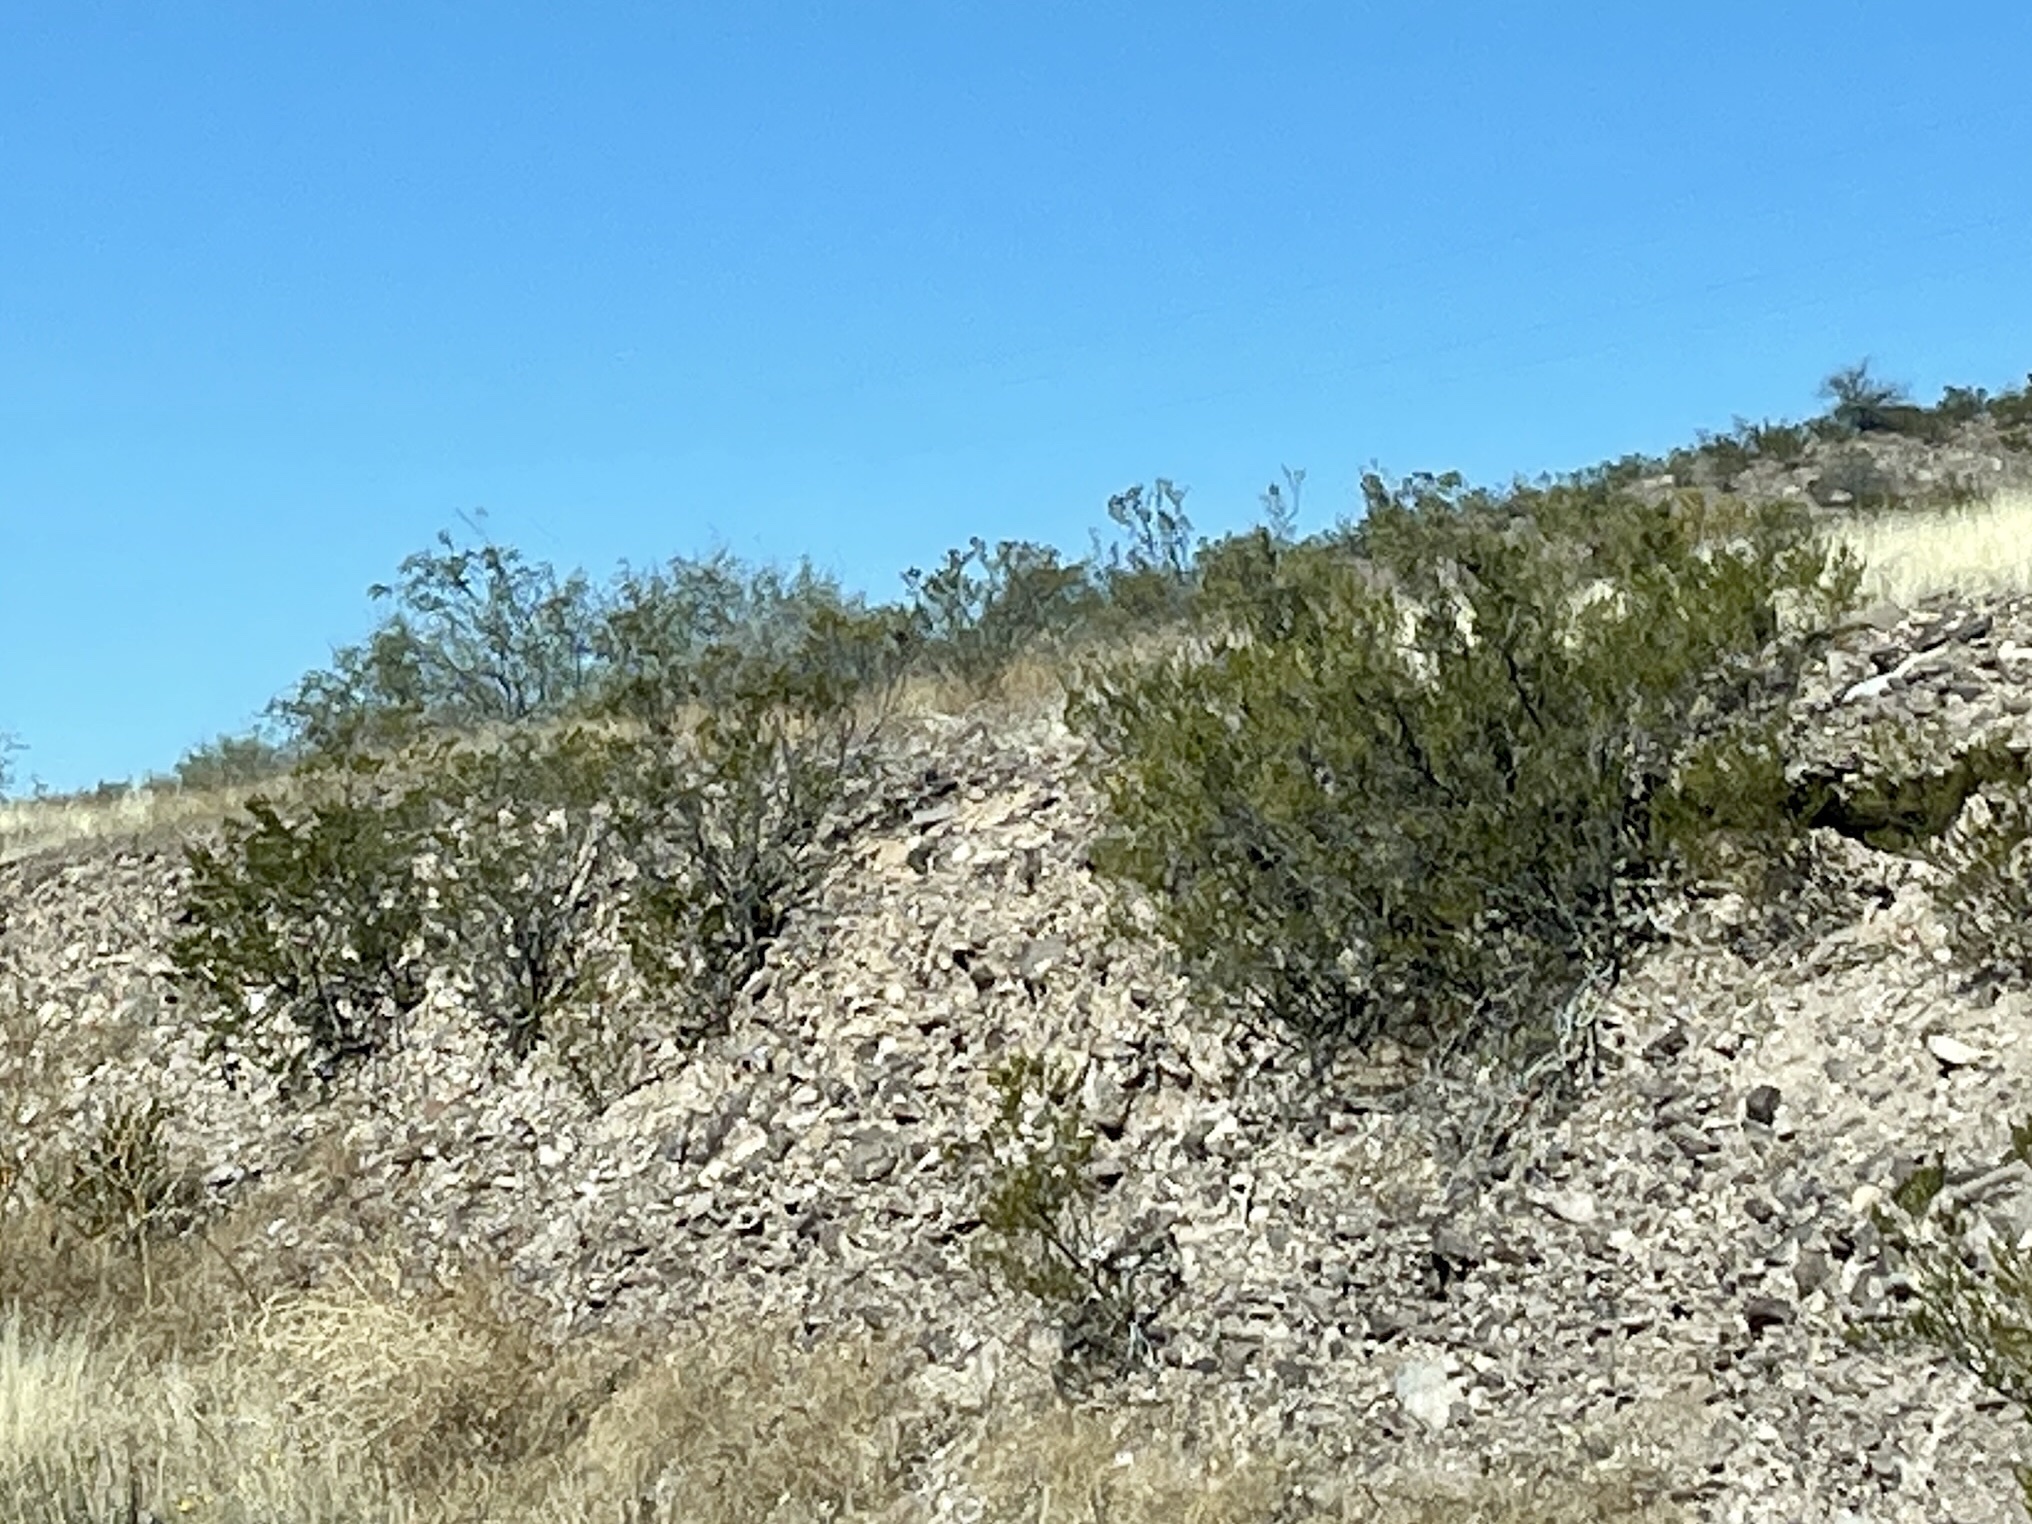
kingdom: Plantae
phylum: Tracheophyta
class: Magnoliopsida
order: Zygophyllales
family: Zygophyllaceae
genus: Larrea
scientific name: Larrea tridentata
